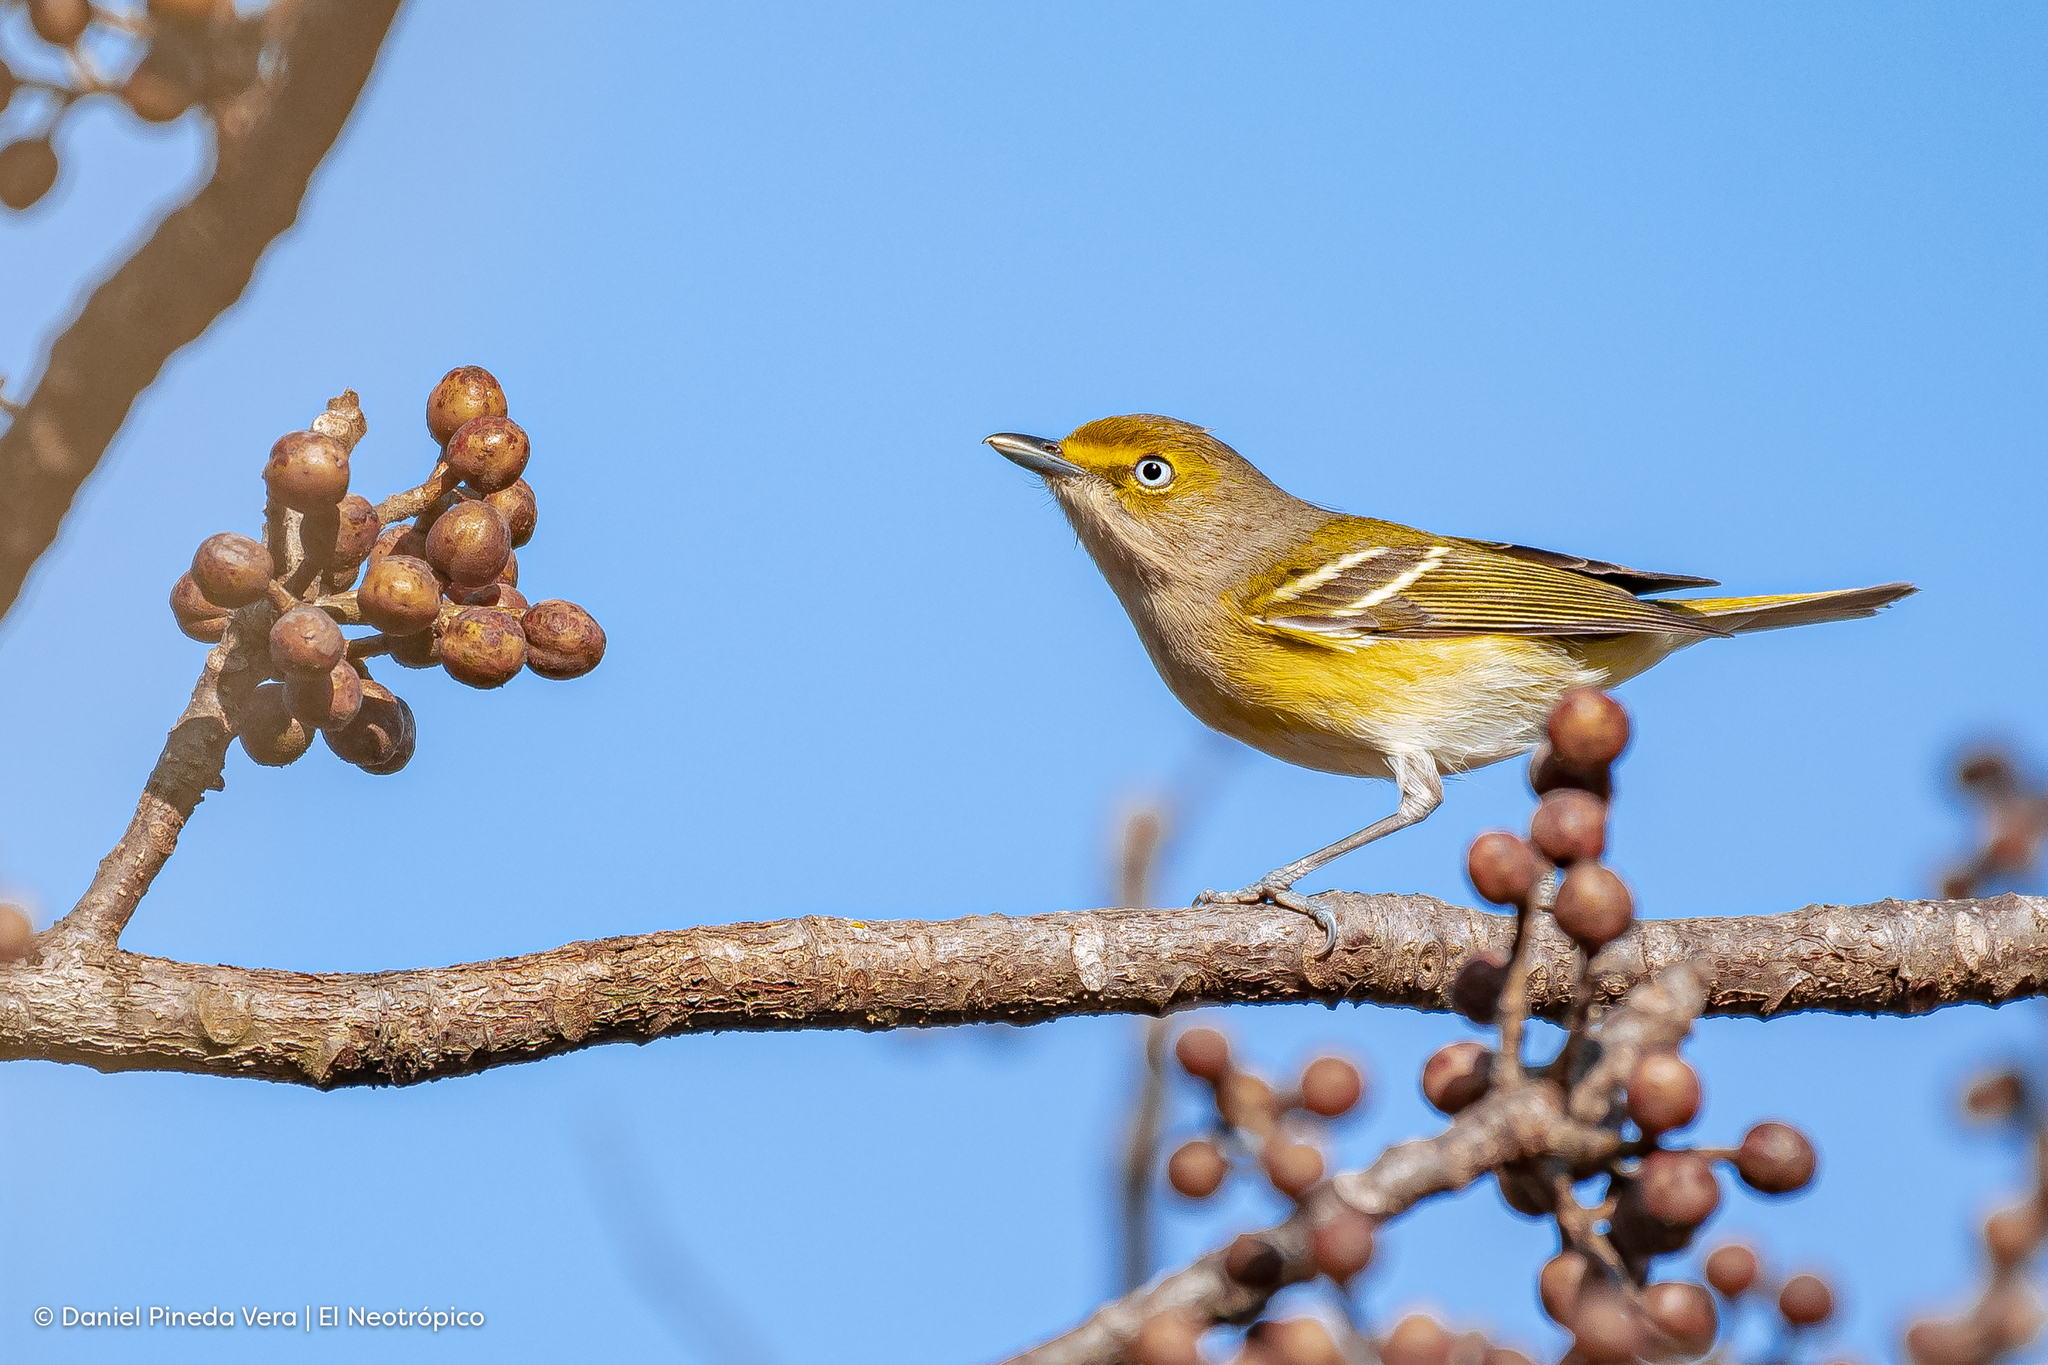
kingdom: Animalia
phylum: Chordata
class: Aves
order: Passeriformes
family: Vireonidae
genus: Vireo
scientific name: Vireo griseus
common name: White-eyed vireo
